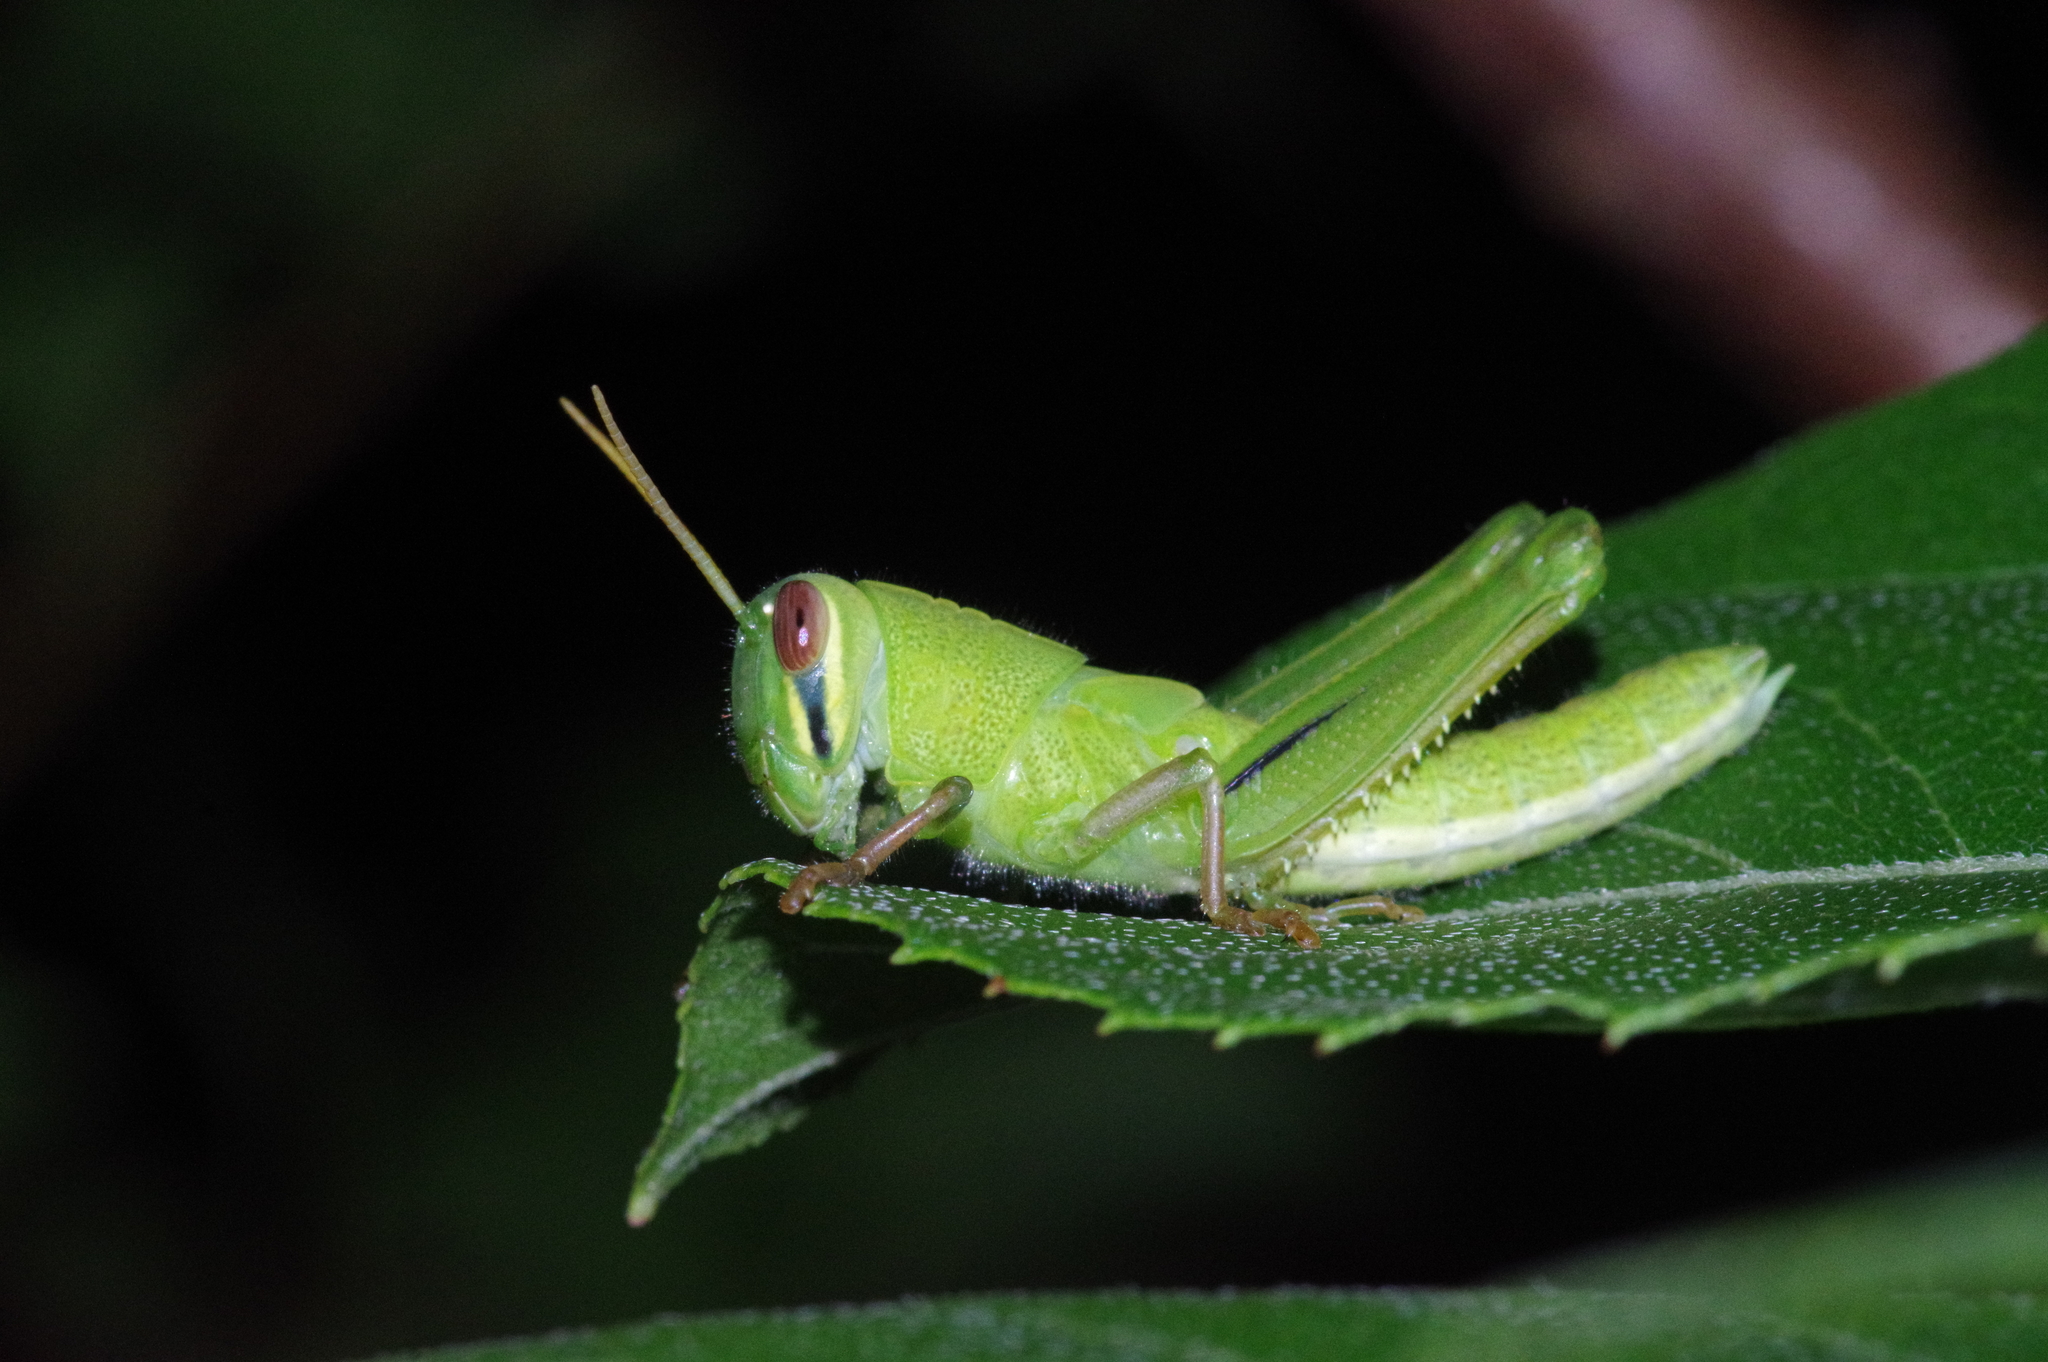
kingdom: Animalia
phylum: Arthropoda
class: Insecta
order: Orthoptera
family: Acrididae
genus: Patanga
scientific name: Patanga japonica
